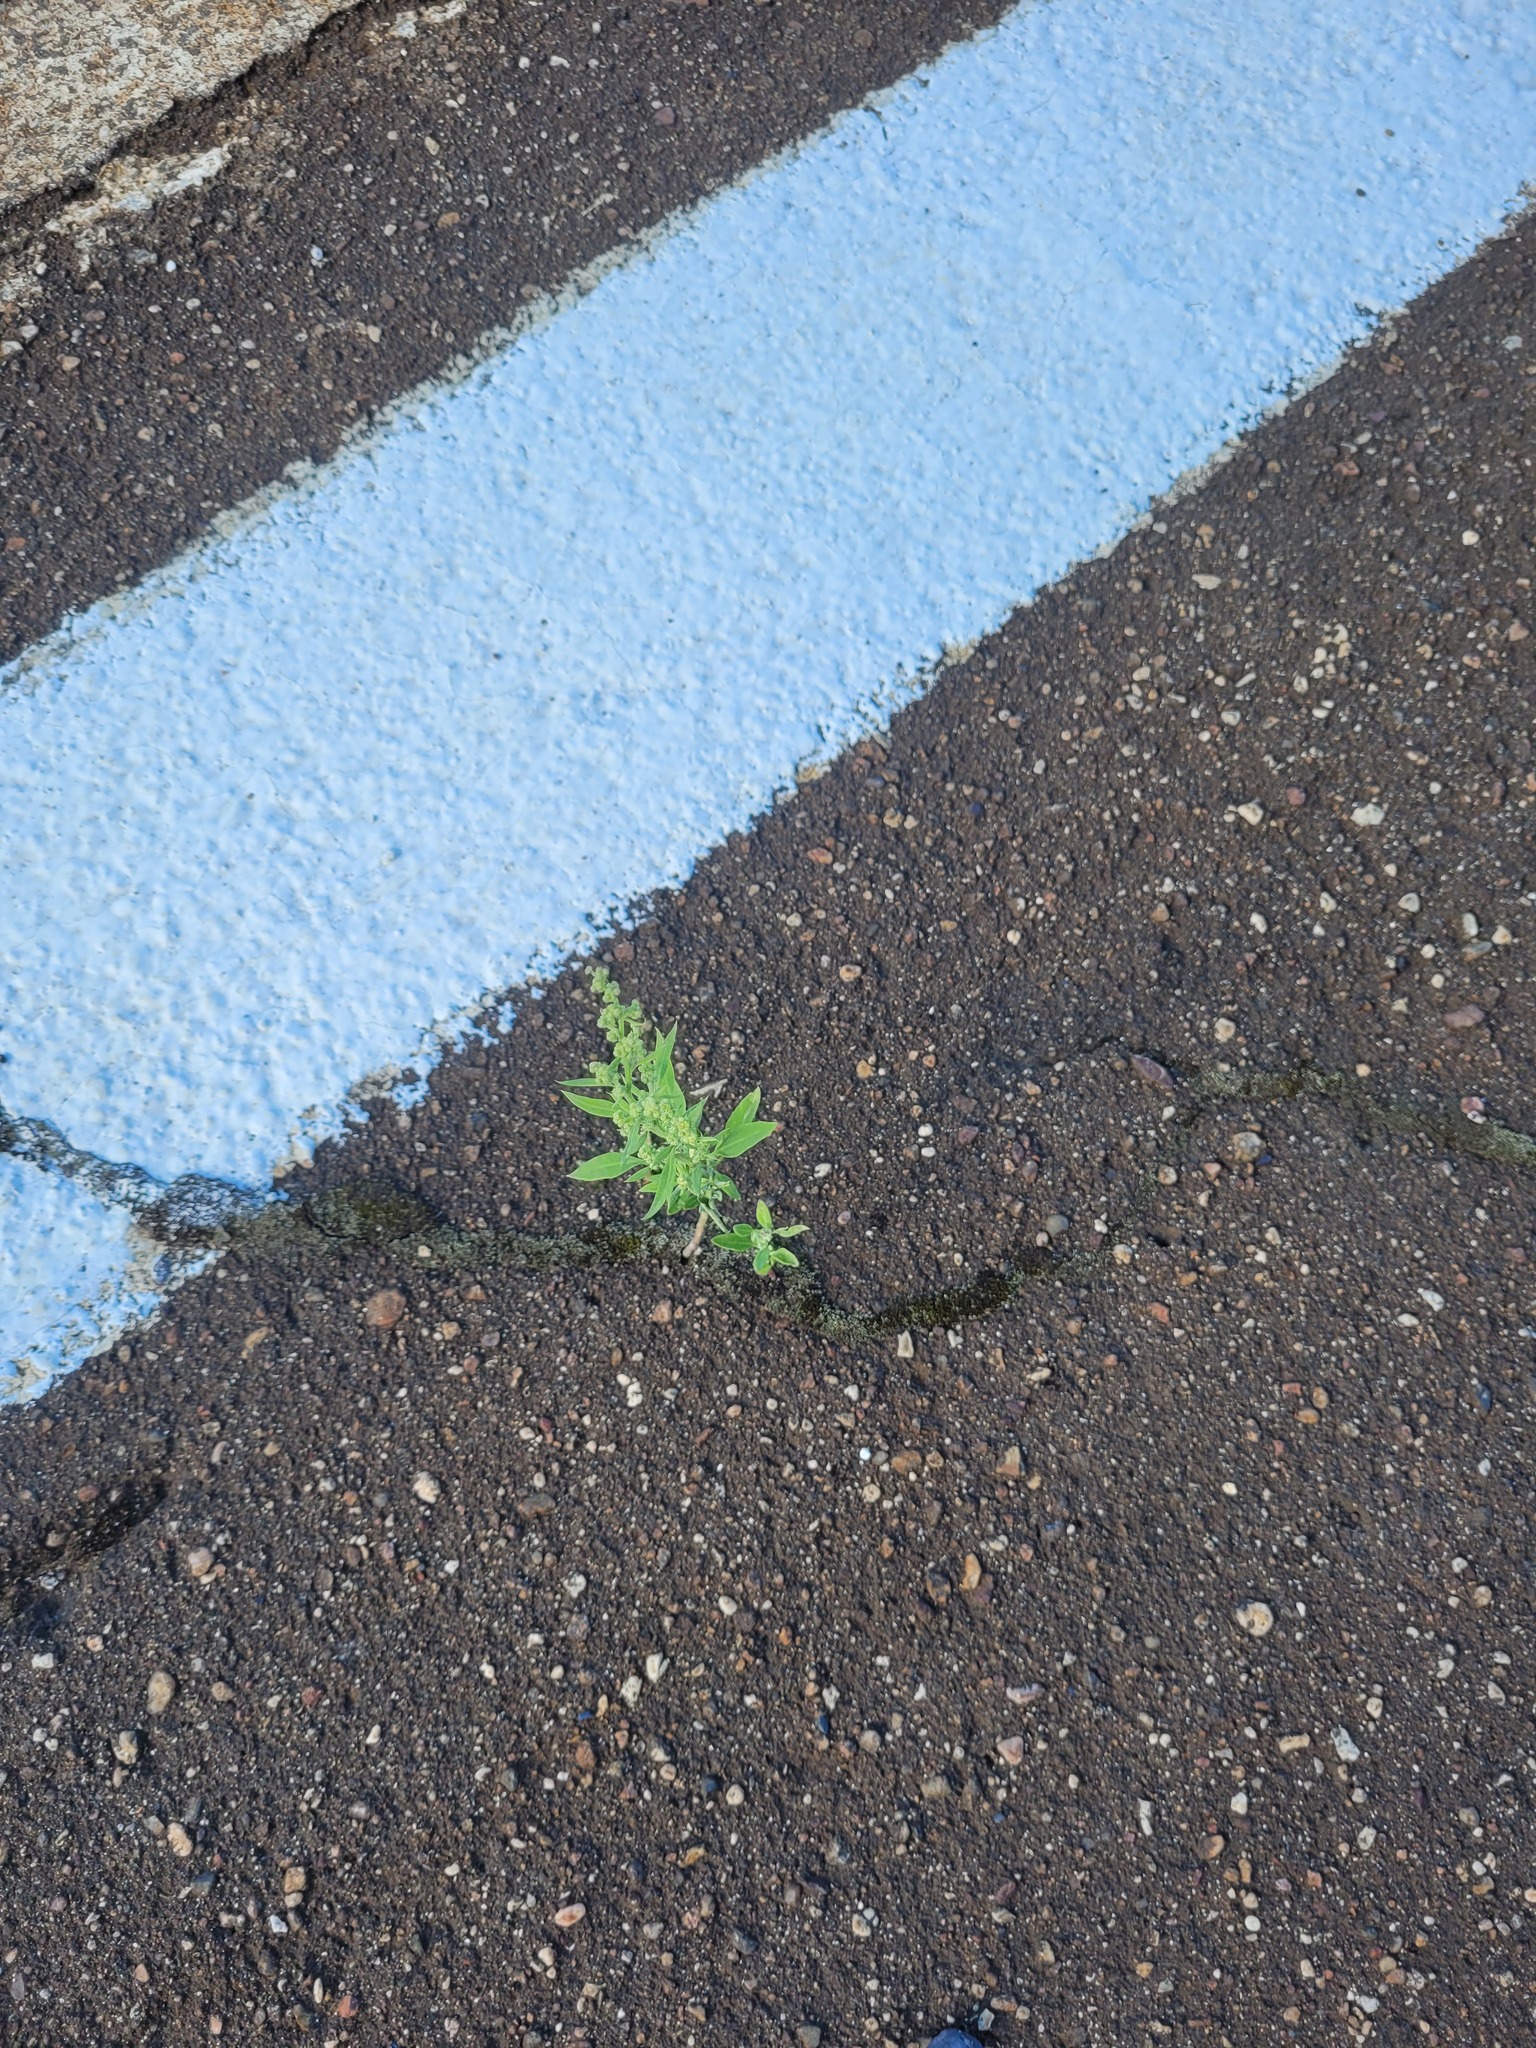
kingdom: Plantae
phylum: Tracheophyta
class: Magnoliopsida
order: Caryophyllales
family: Amaranthaceae
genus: Chenopodium
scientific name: Chenopodium album
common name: Fat-hen
